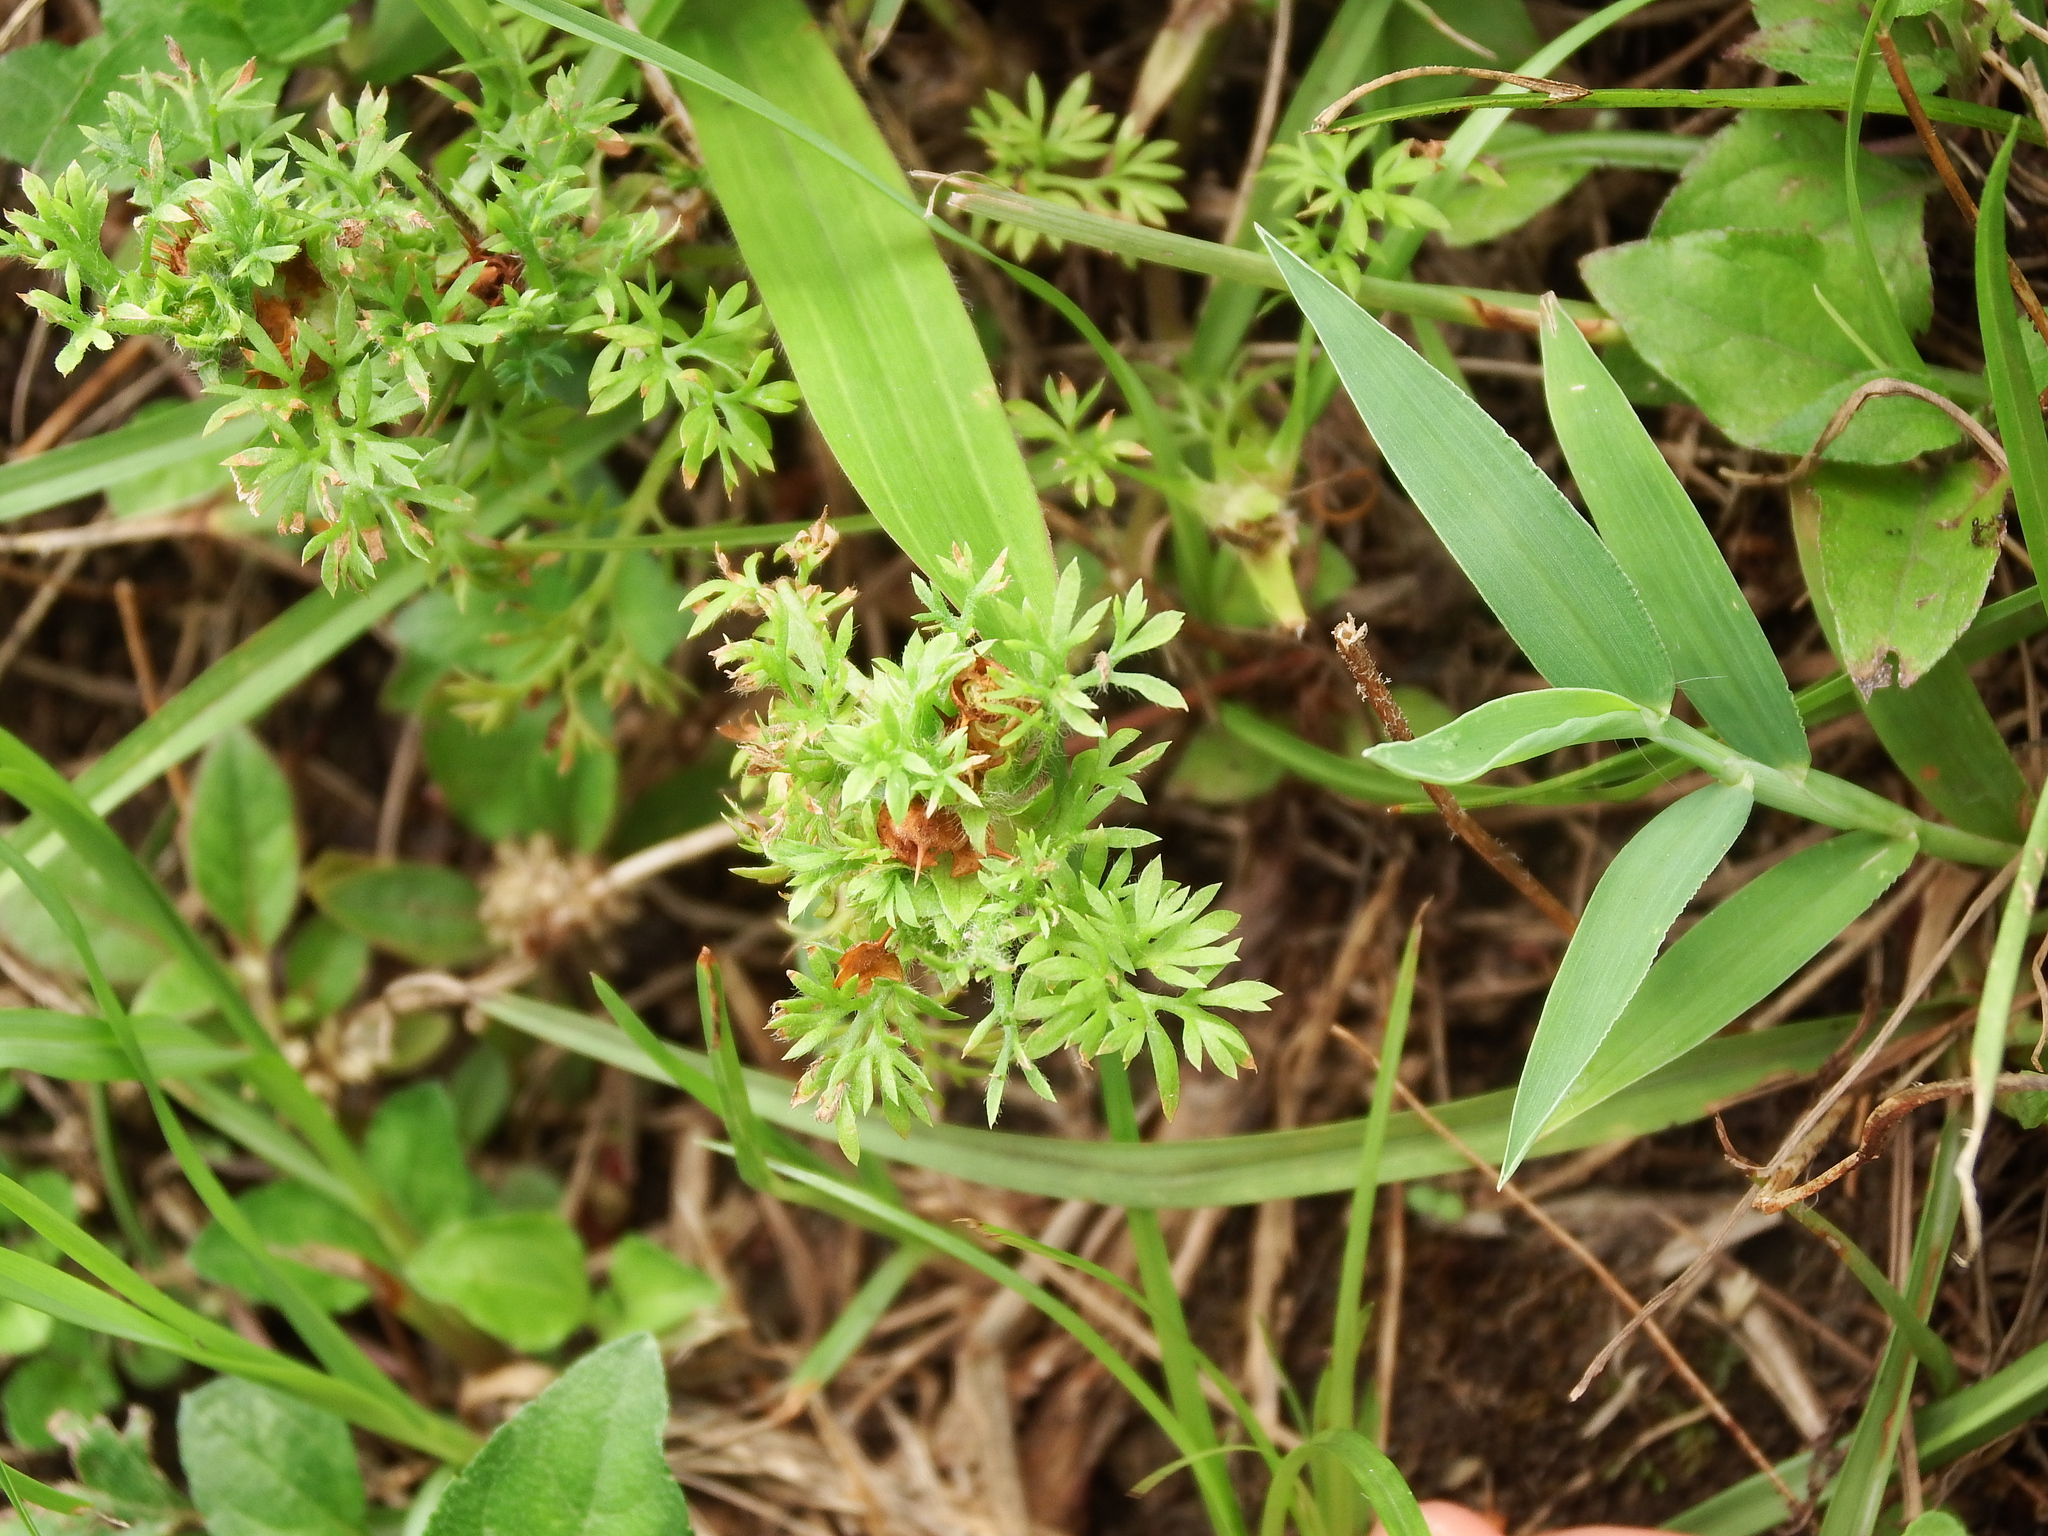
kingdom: Plantae
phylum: Tracheophyta
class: Magnoliopsida
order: Asterales
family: Asteraceae
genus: Soliva
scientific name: Soliva sessilis
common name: Field burrweed
